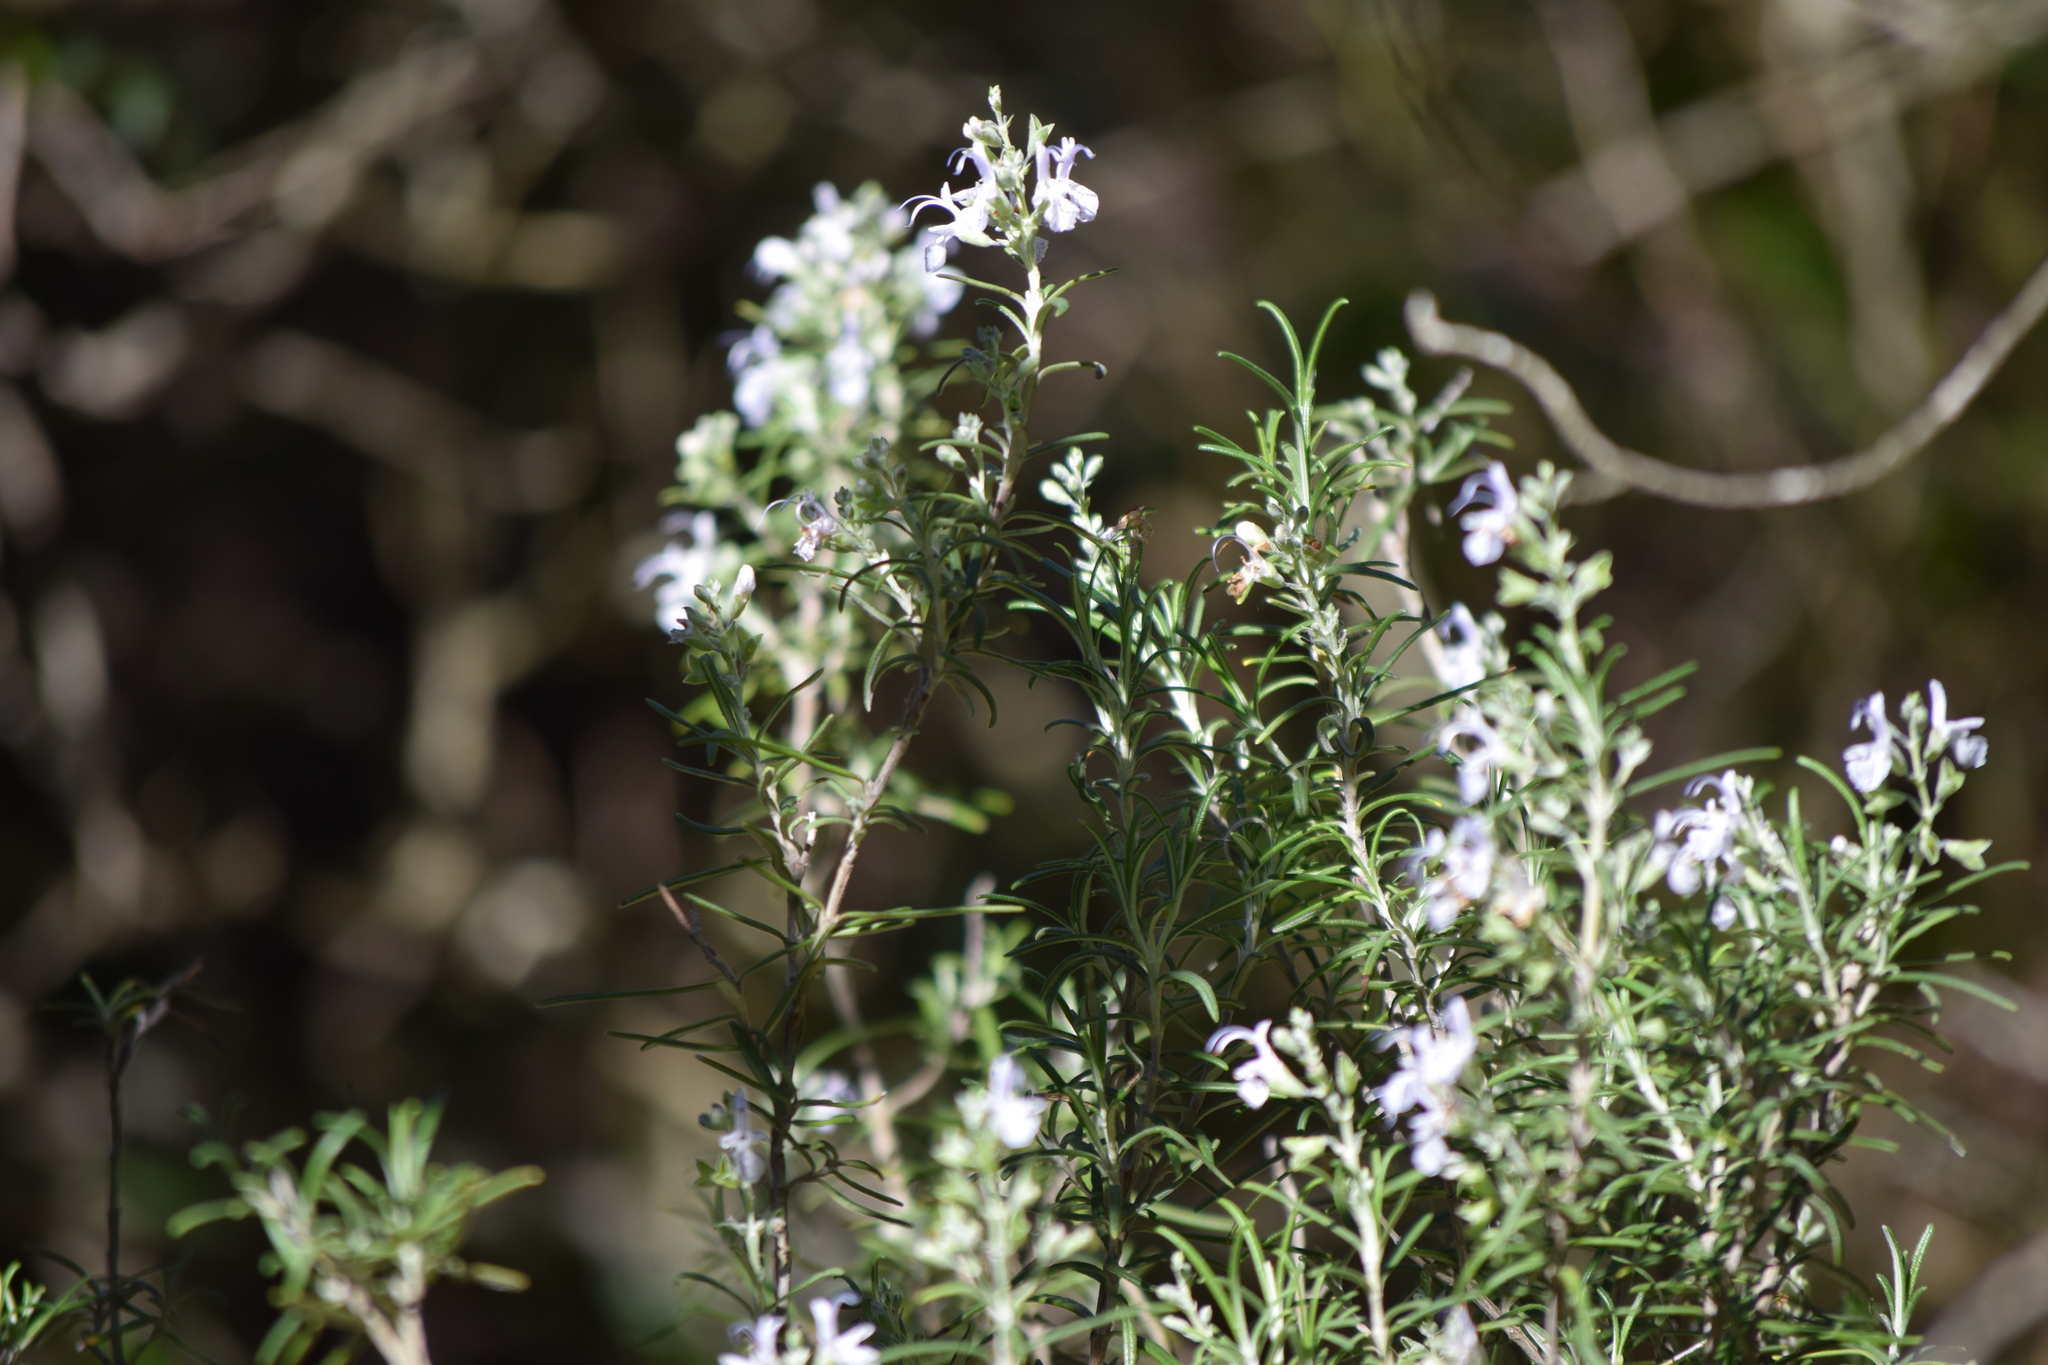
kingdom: Plantae
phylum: Tracheophyta
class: Magnoliopsida
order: Lamiales
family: Lamiaceae
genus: Salvia
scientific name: Salvia rosmarinus
